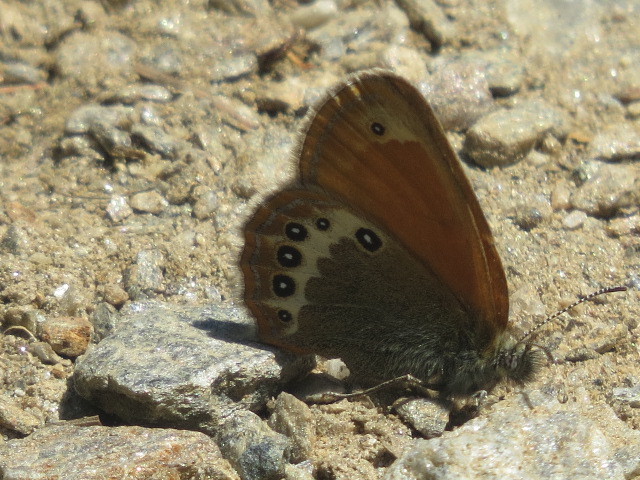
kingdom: Animalia
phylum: Arthropoda
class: Insecta
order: Lepidoptera
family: Nymphalidae
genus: Coenonympha
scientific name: Coenonympha arcania
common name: Pearly heath
